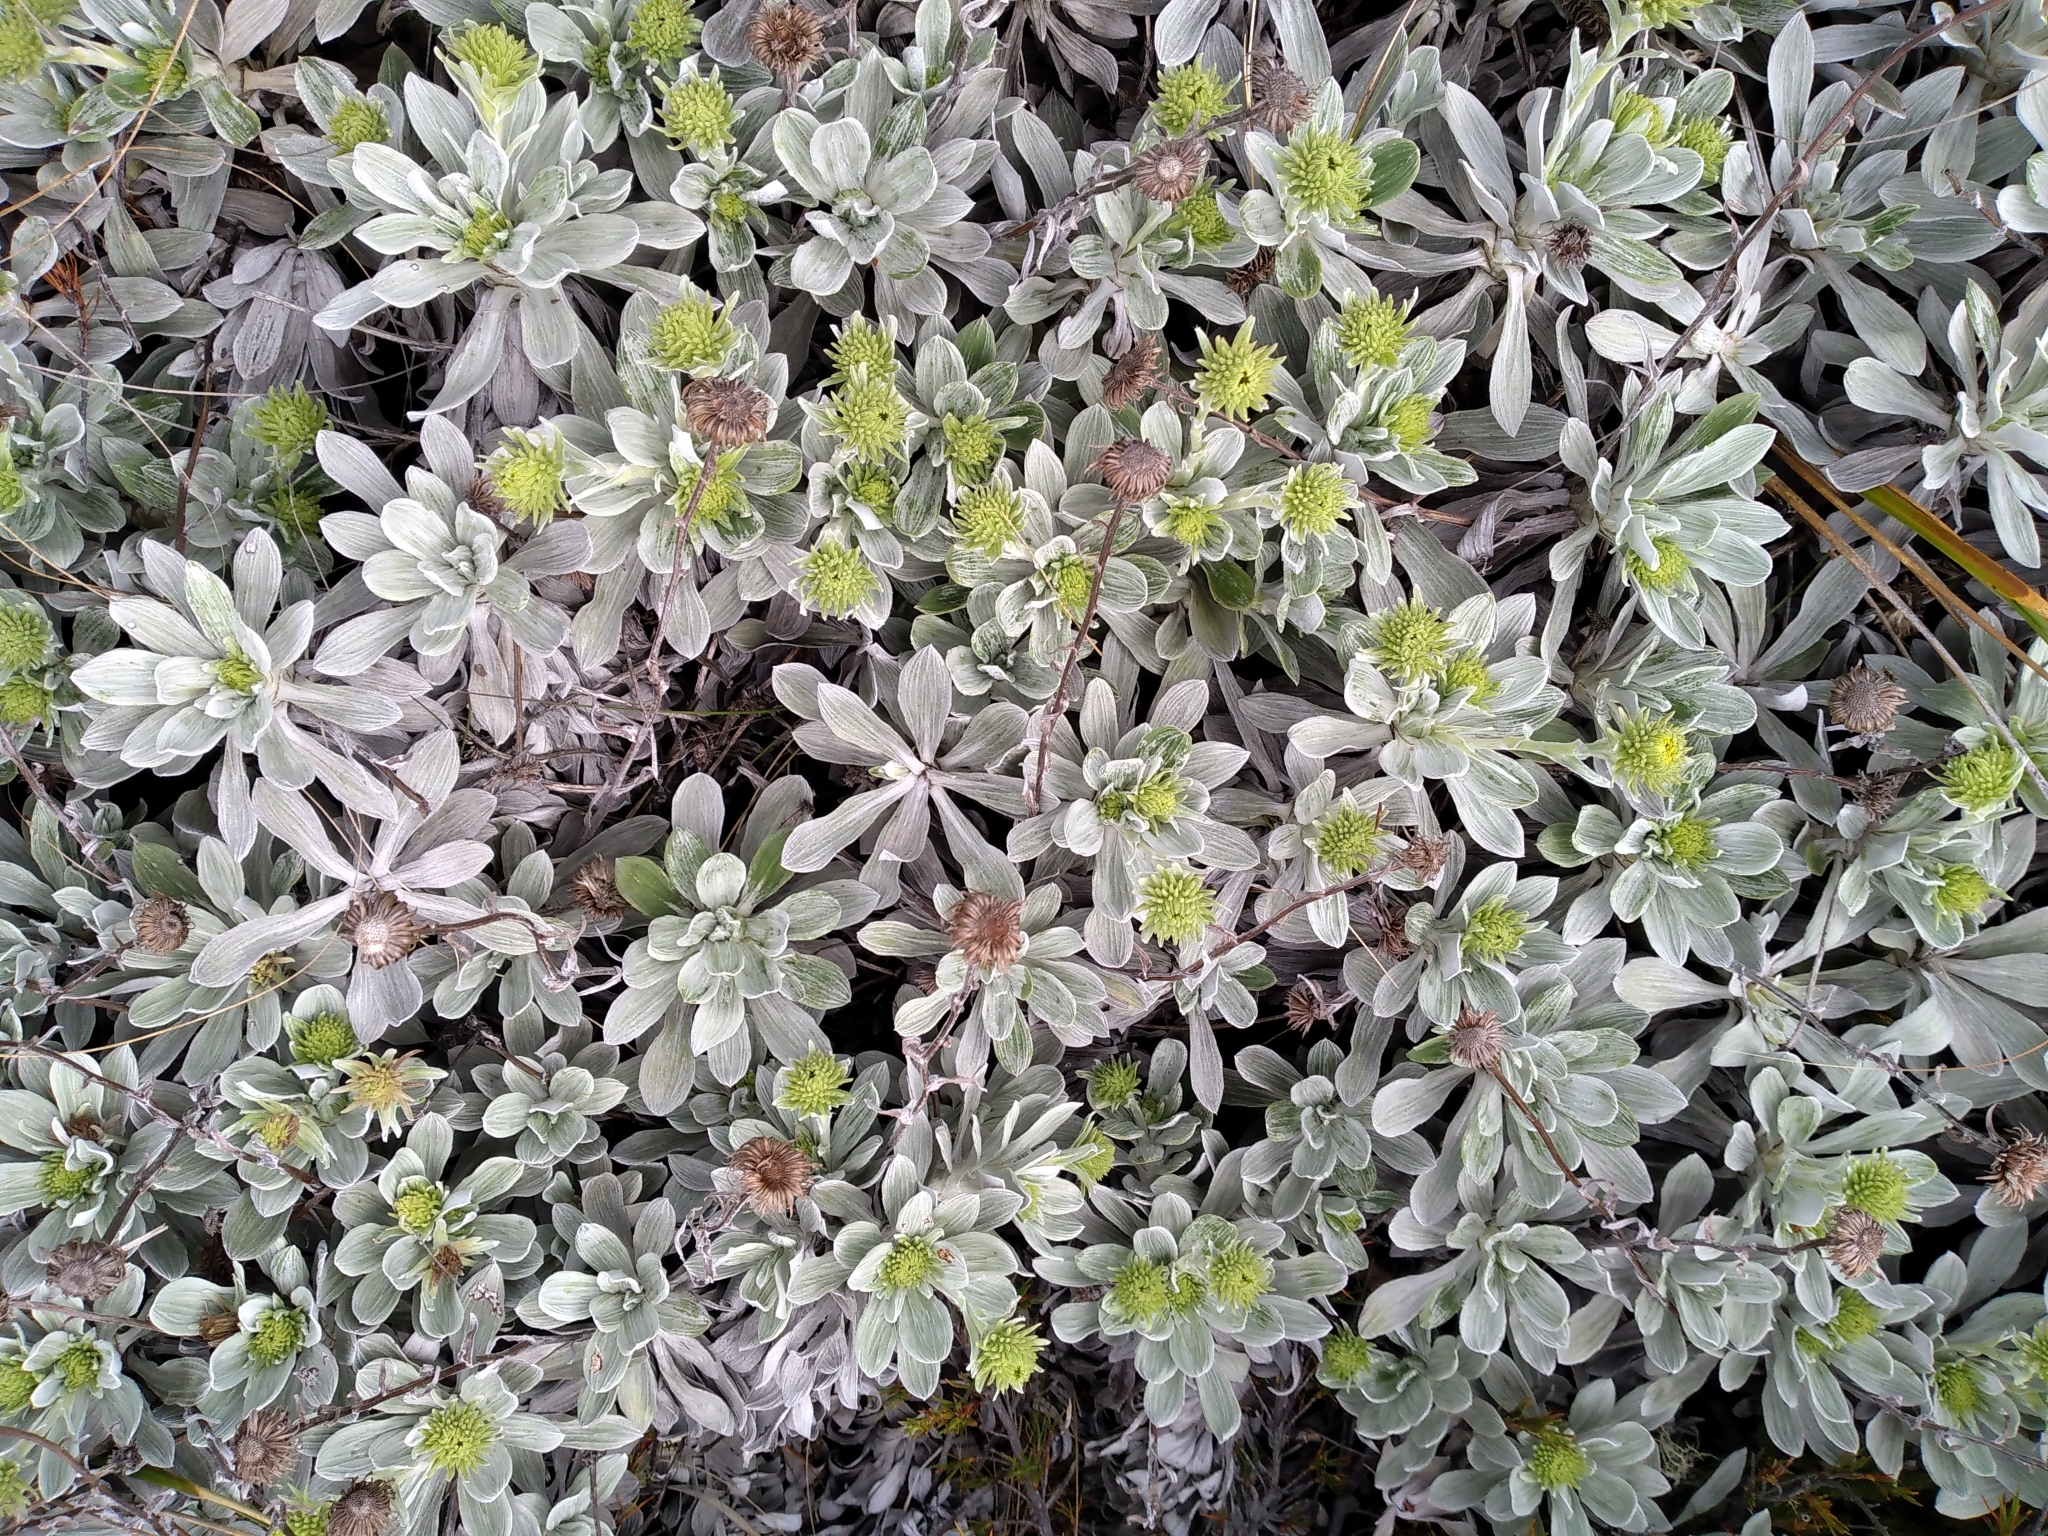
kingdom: Plantae
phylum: Tracheophyta
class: Magnoliopsida
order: Asterales
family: Asteraceae
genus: Celmisia
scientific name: Celmisia discolor
